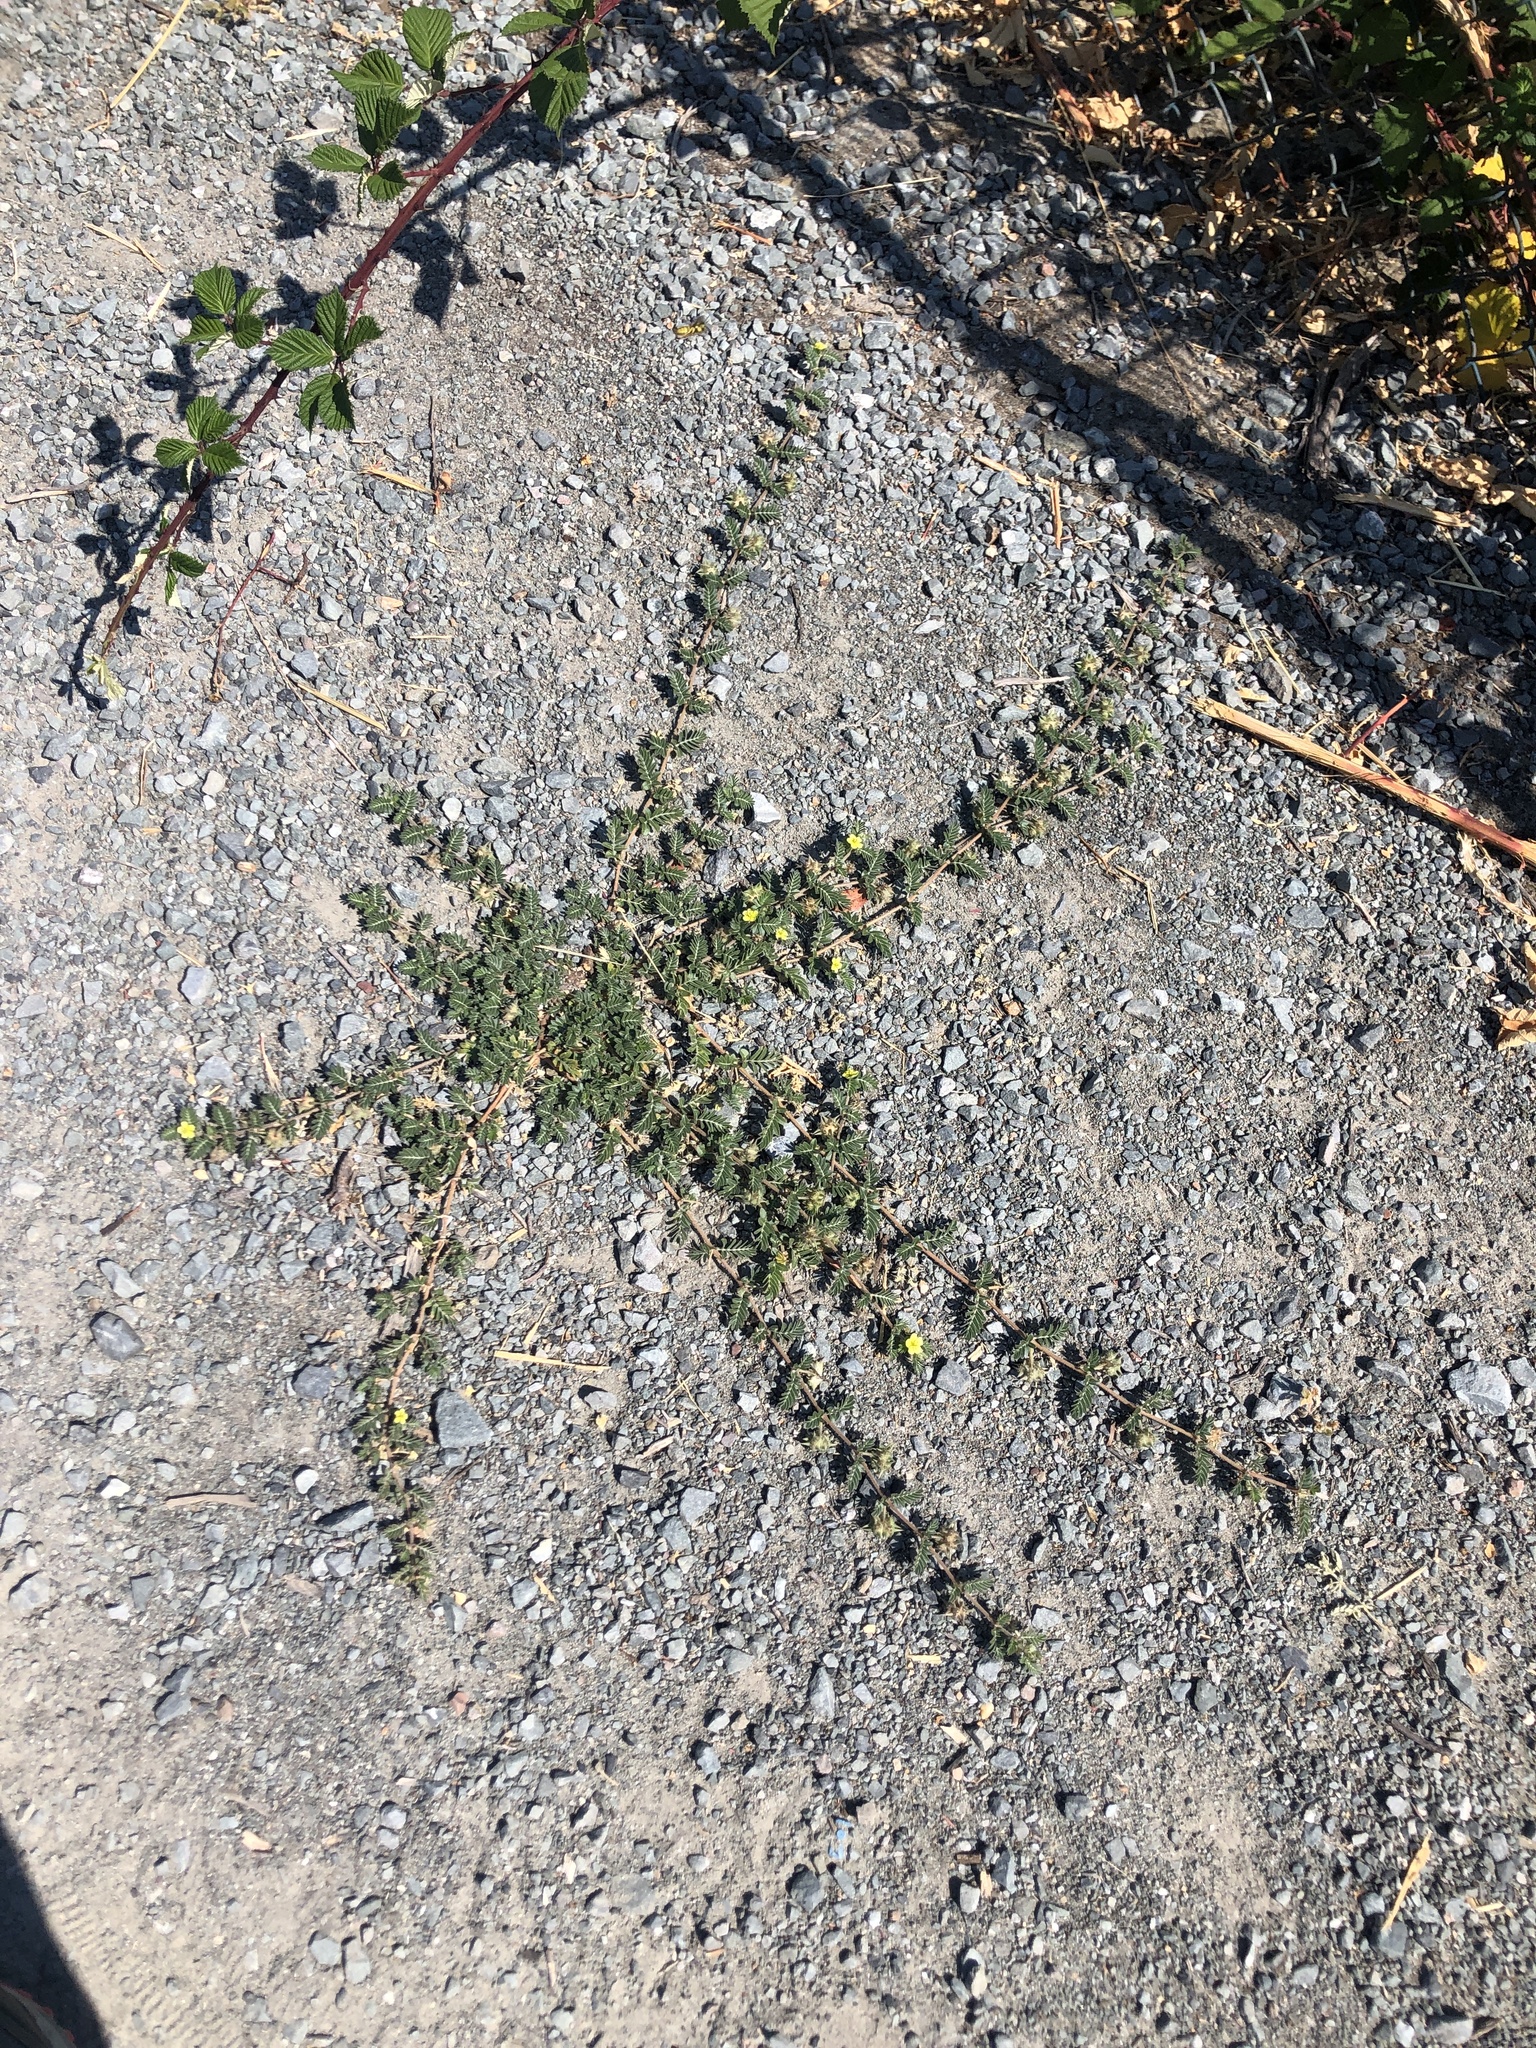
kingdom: Plantae
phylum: Tracheophyta
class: Magnoliopsida
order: Zygophyllales
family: Zygophyllaceae
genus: Tribulus
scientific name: Tribulus terrestris
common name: Puncturevine
